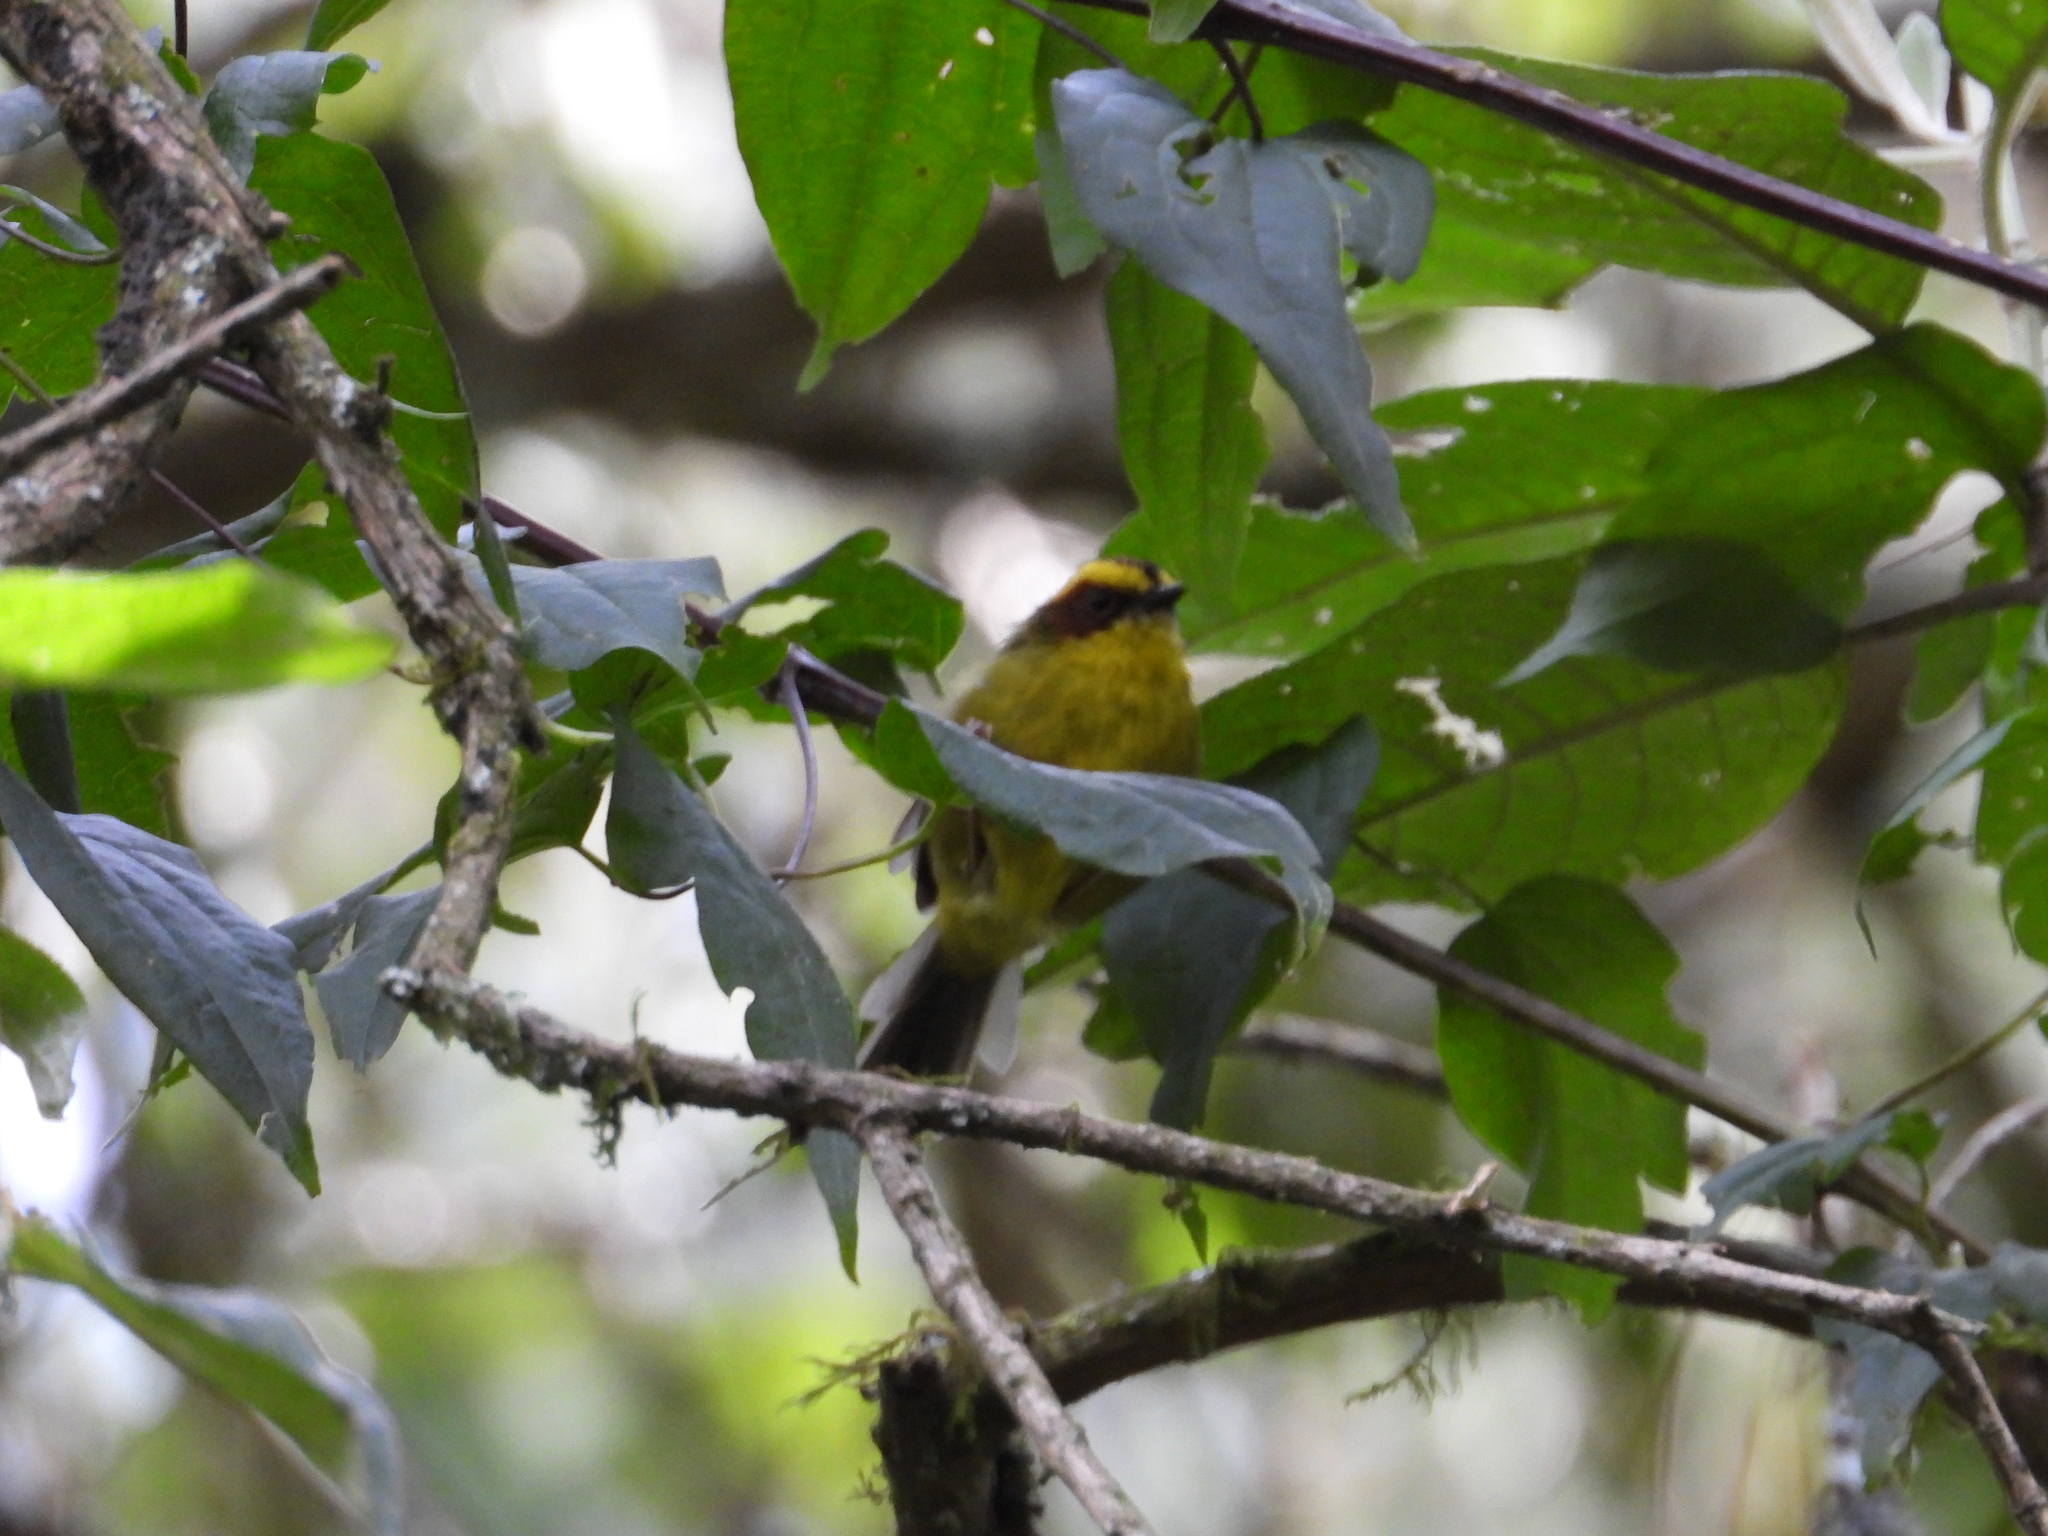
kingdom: Animalia
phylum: Chordata
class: Aves
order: Passeriformes
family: Parulidae
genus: Basileuterus
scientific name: Basileuterus belli
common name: Golden-browed warbler
